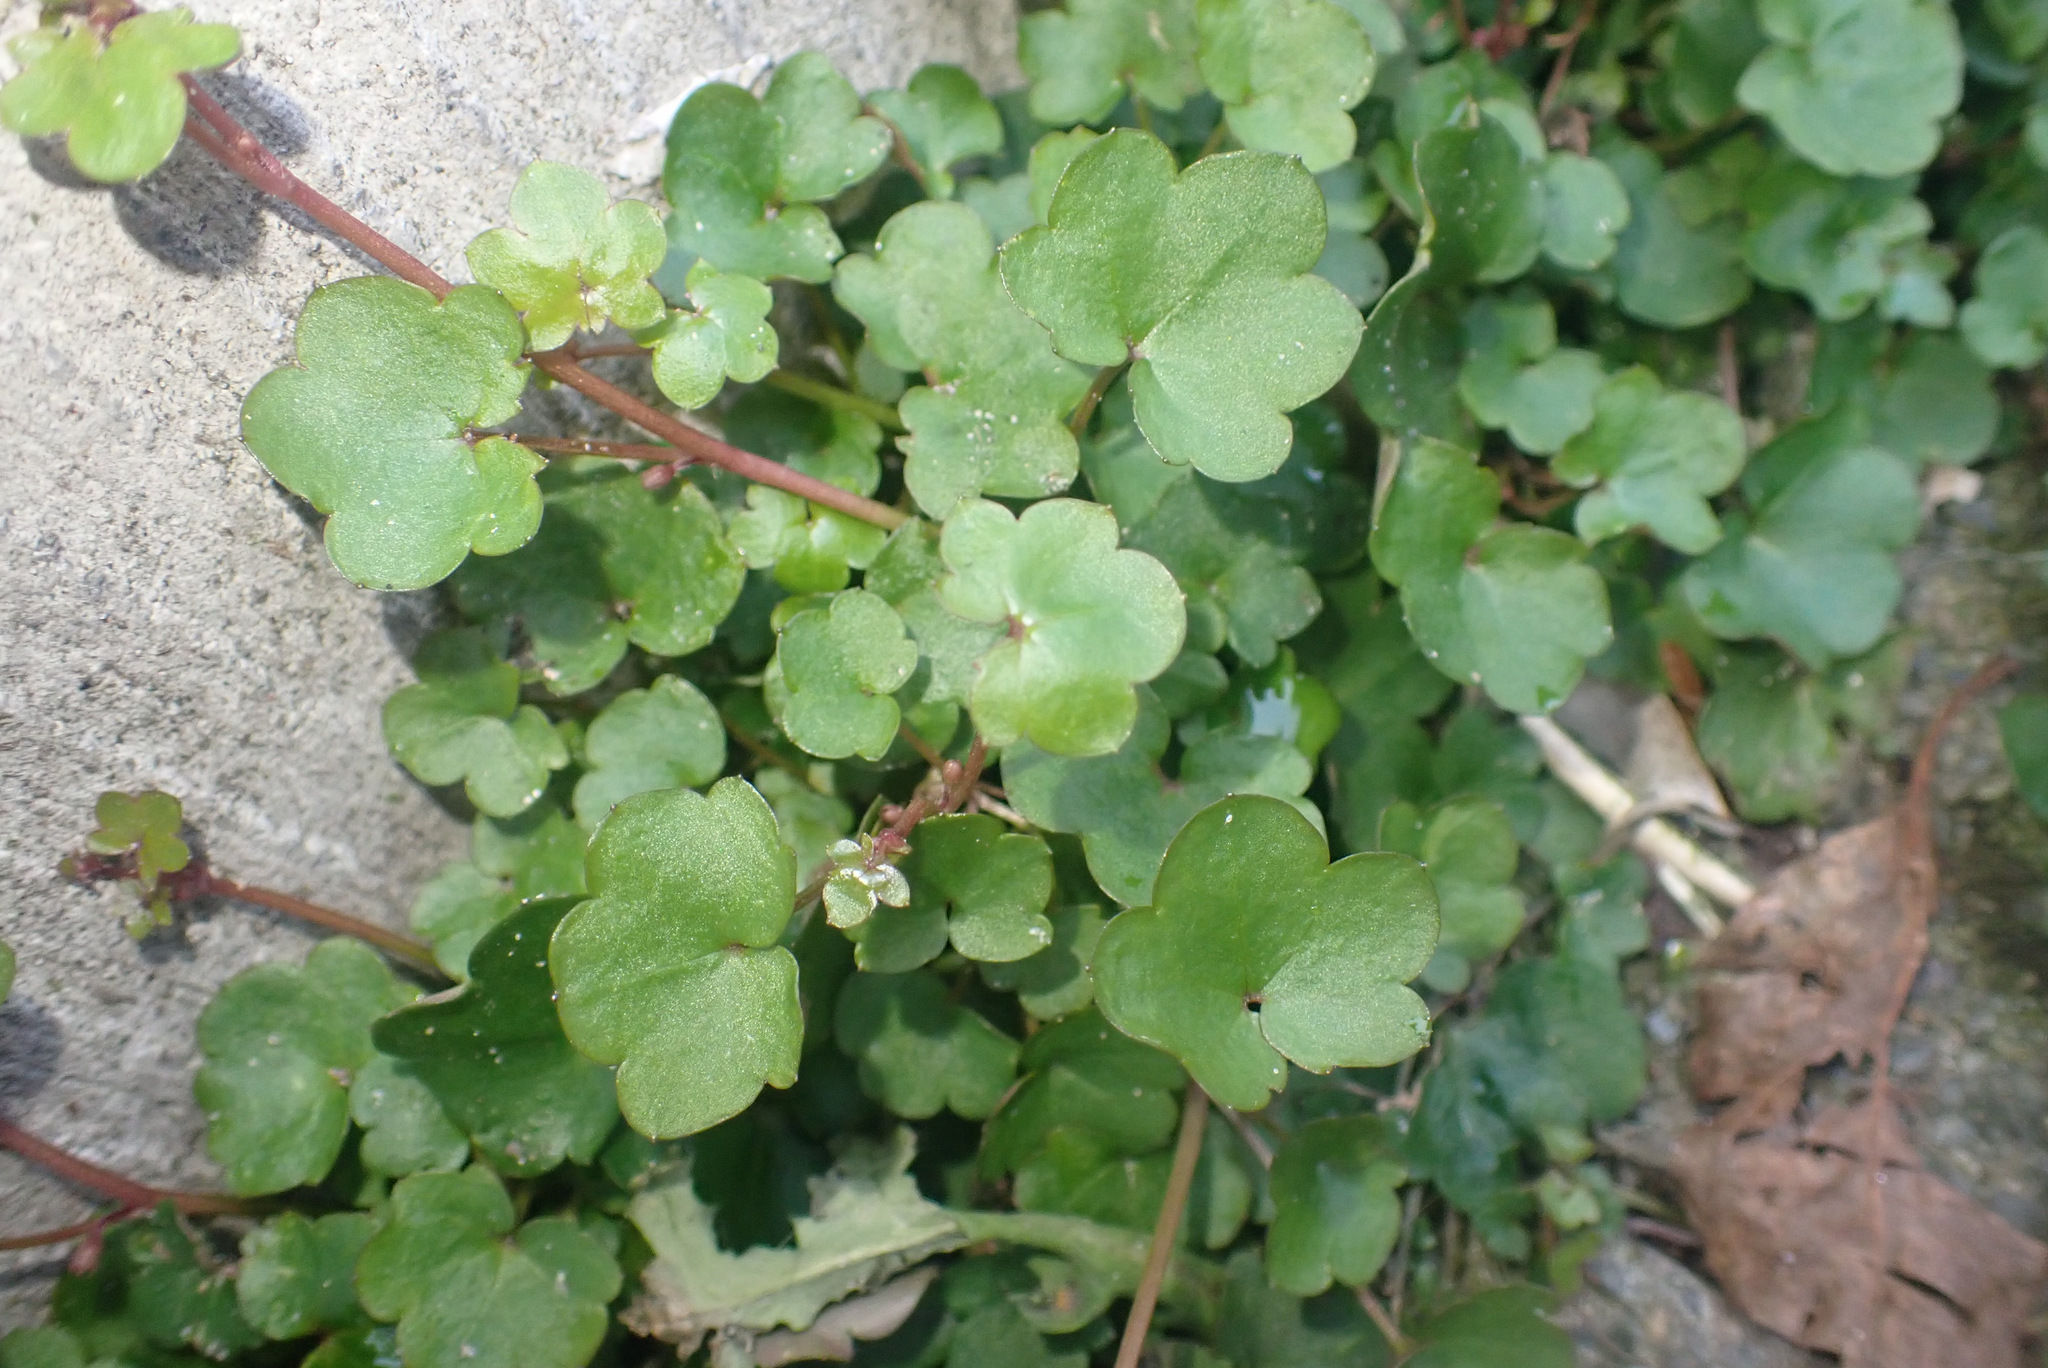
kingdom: Plantae
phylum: Tracheophyta
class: Magnoliopsida
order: Lamiales
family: Plantaginaceae
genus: Cymbalaria
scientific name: Cymbalaria muralis
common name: Ivy-leaved toadflax
